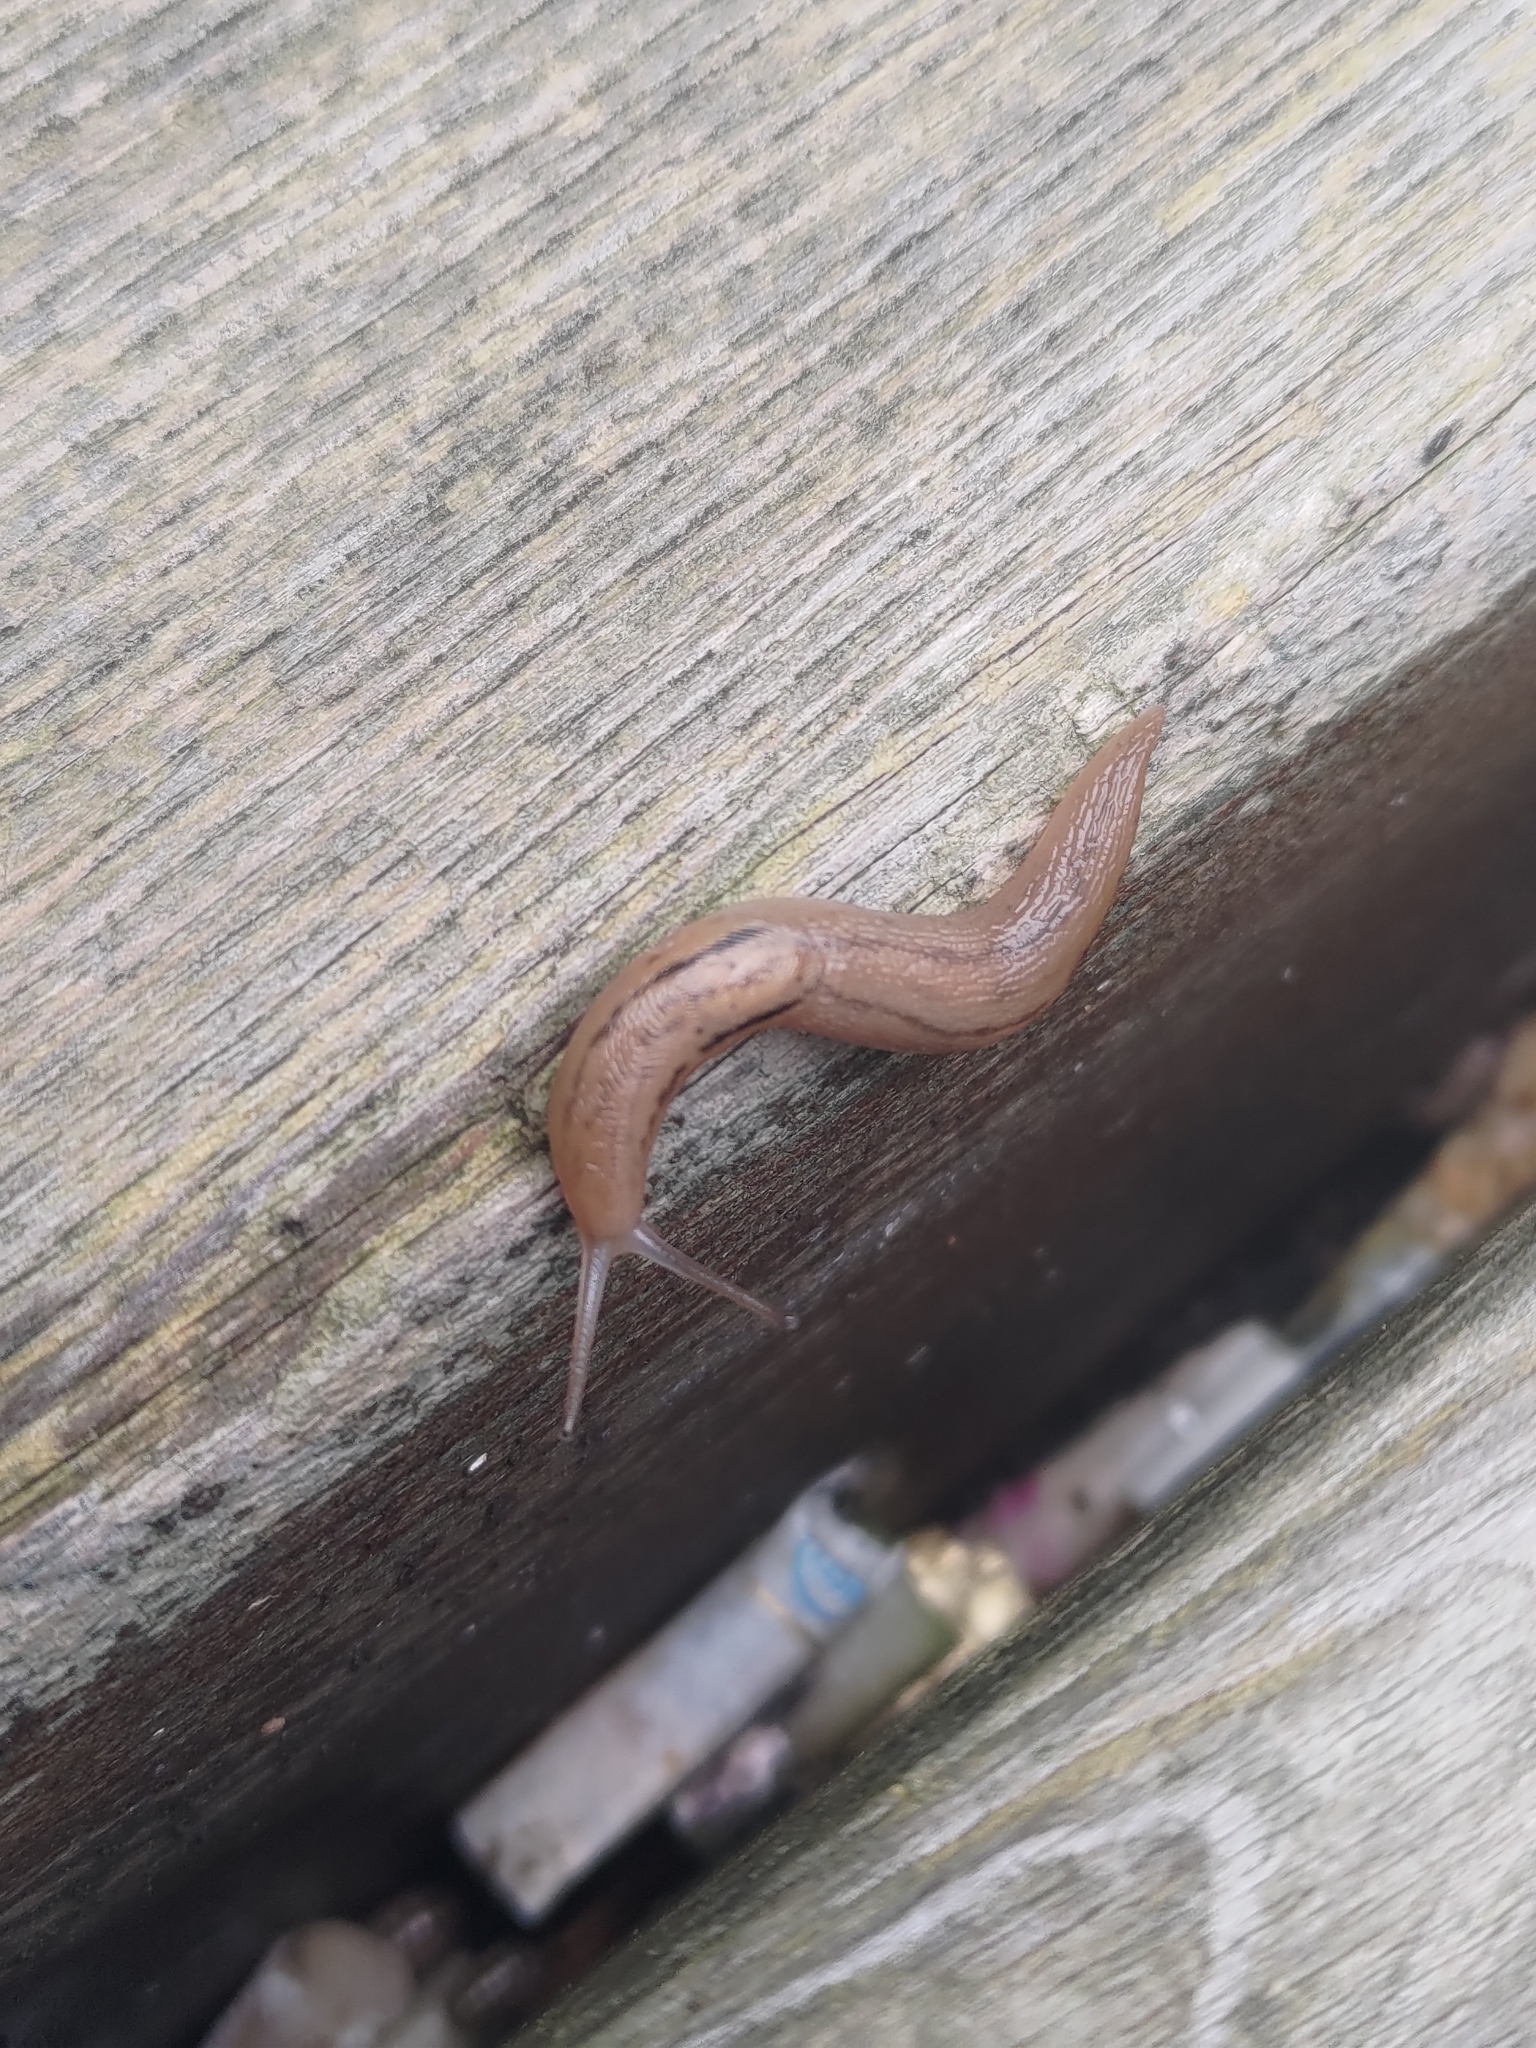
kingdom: Animalia
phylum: Mollusca
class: Gastropoda
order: Stylommatophora
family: Limacidae
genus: Ambigolimax
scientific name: Ambigolimax valentianus
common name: Greenhouse slug
